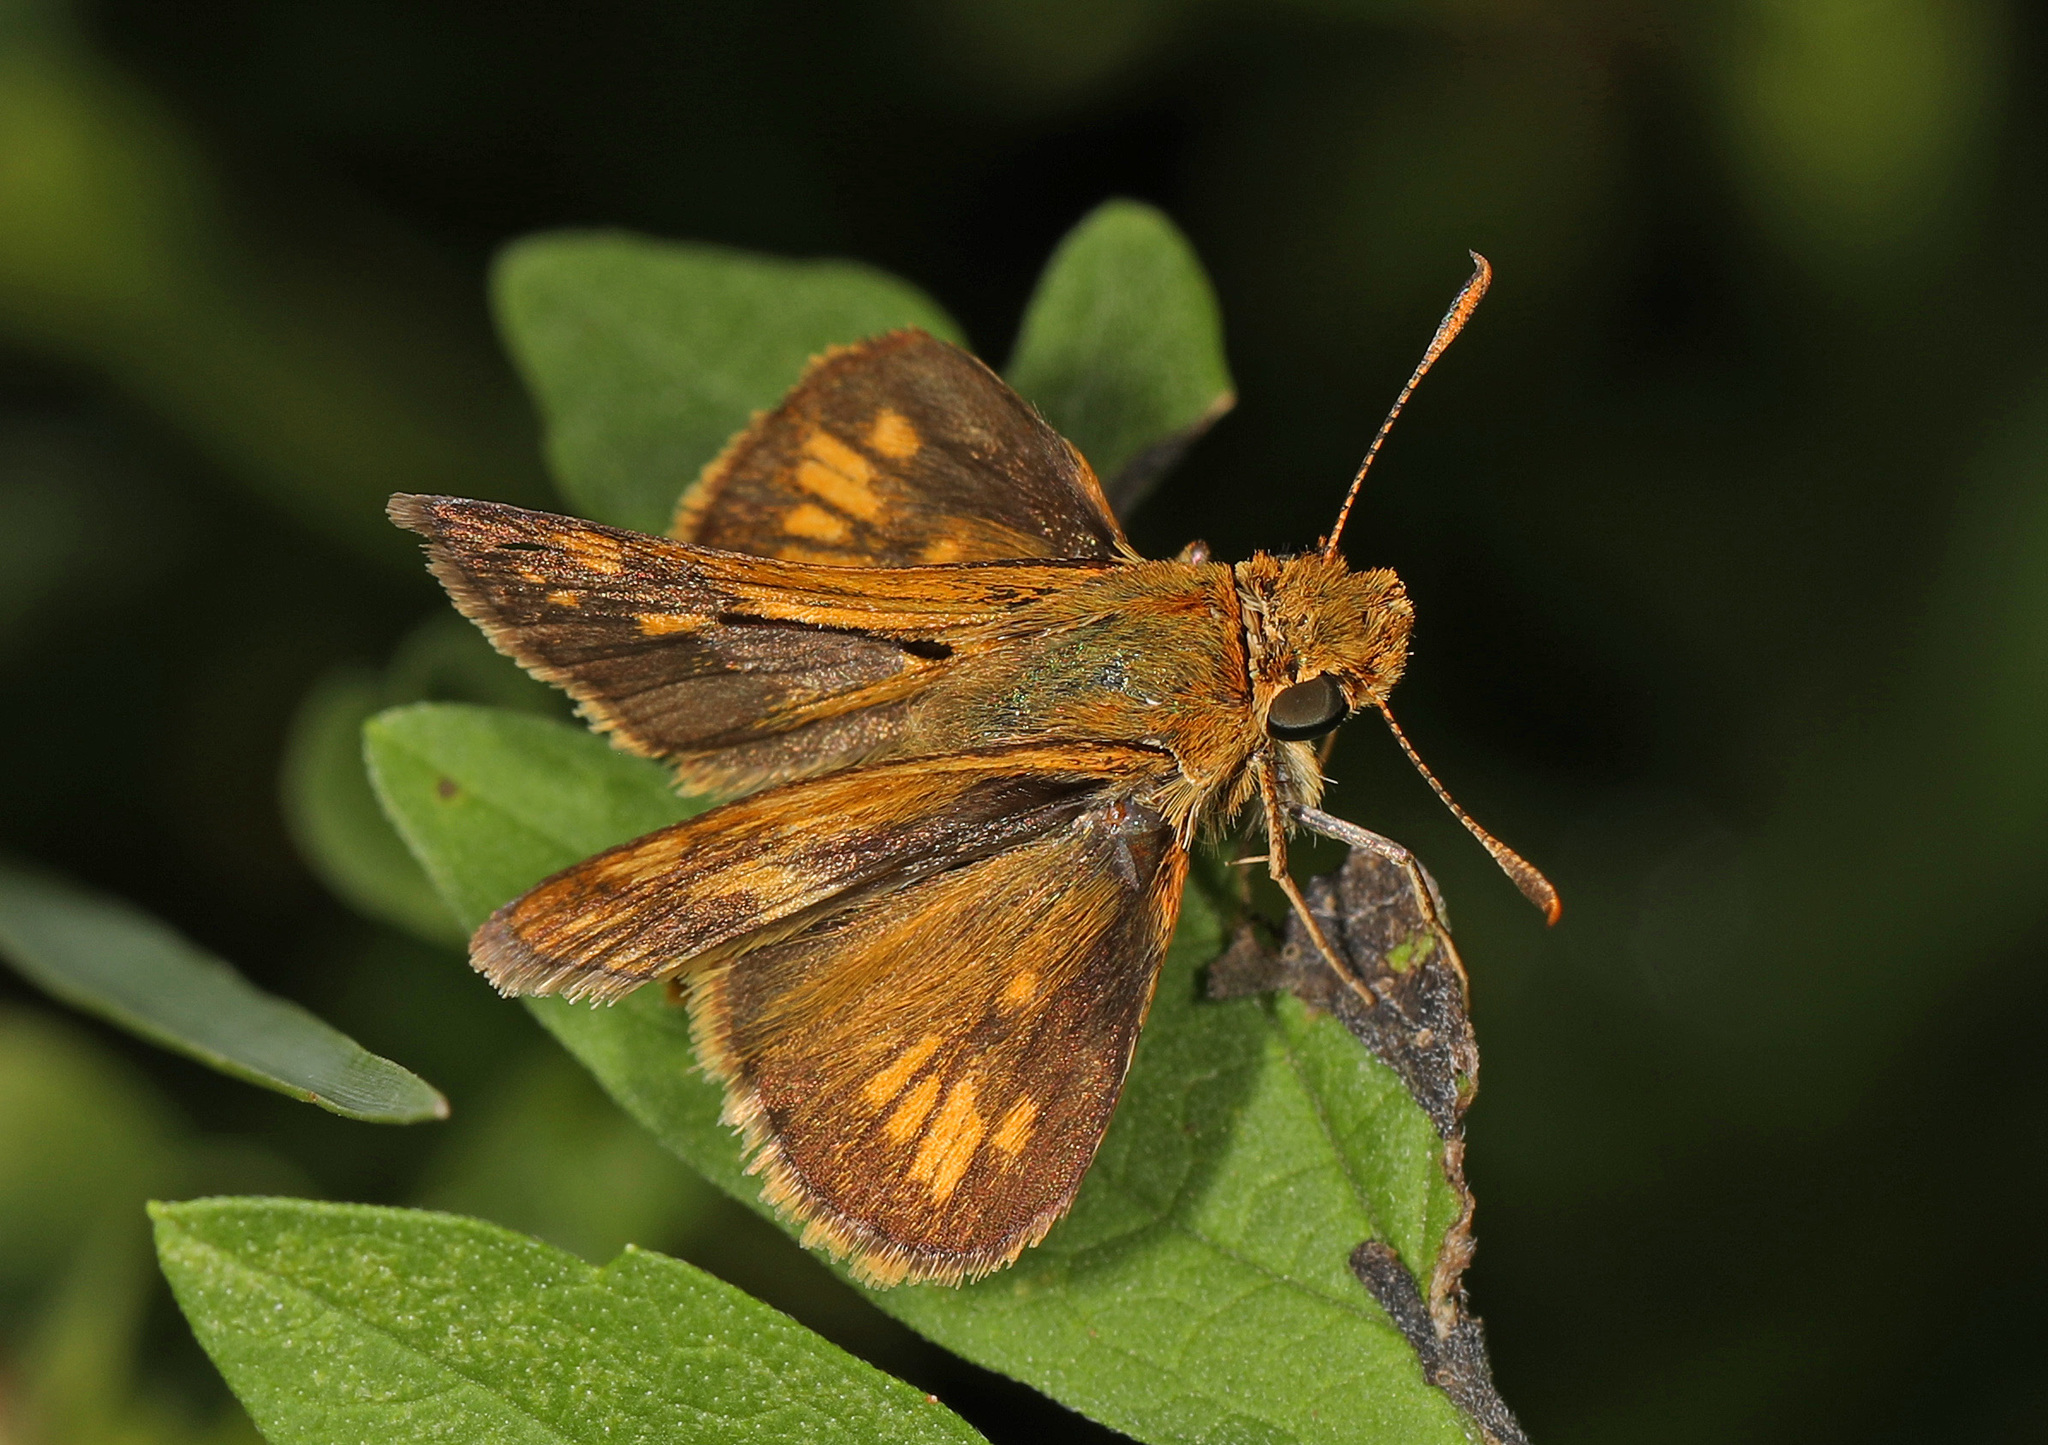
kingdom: Animalia
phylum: Arthropoda
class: Insecta
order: Lepidoptera
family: Hesperiidae
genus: Polites
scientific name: Polites coras
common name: Peck's skipper
